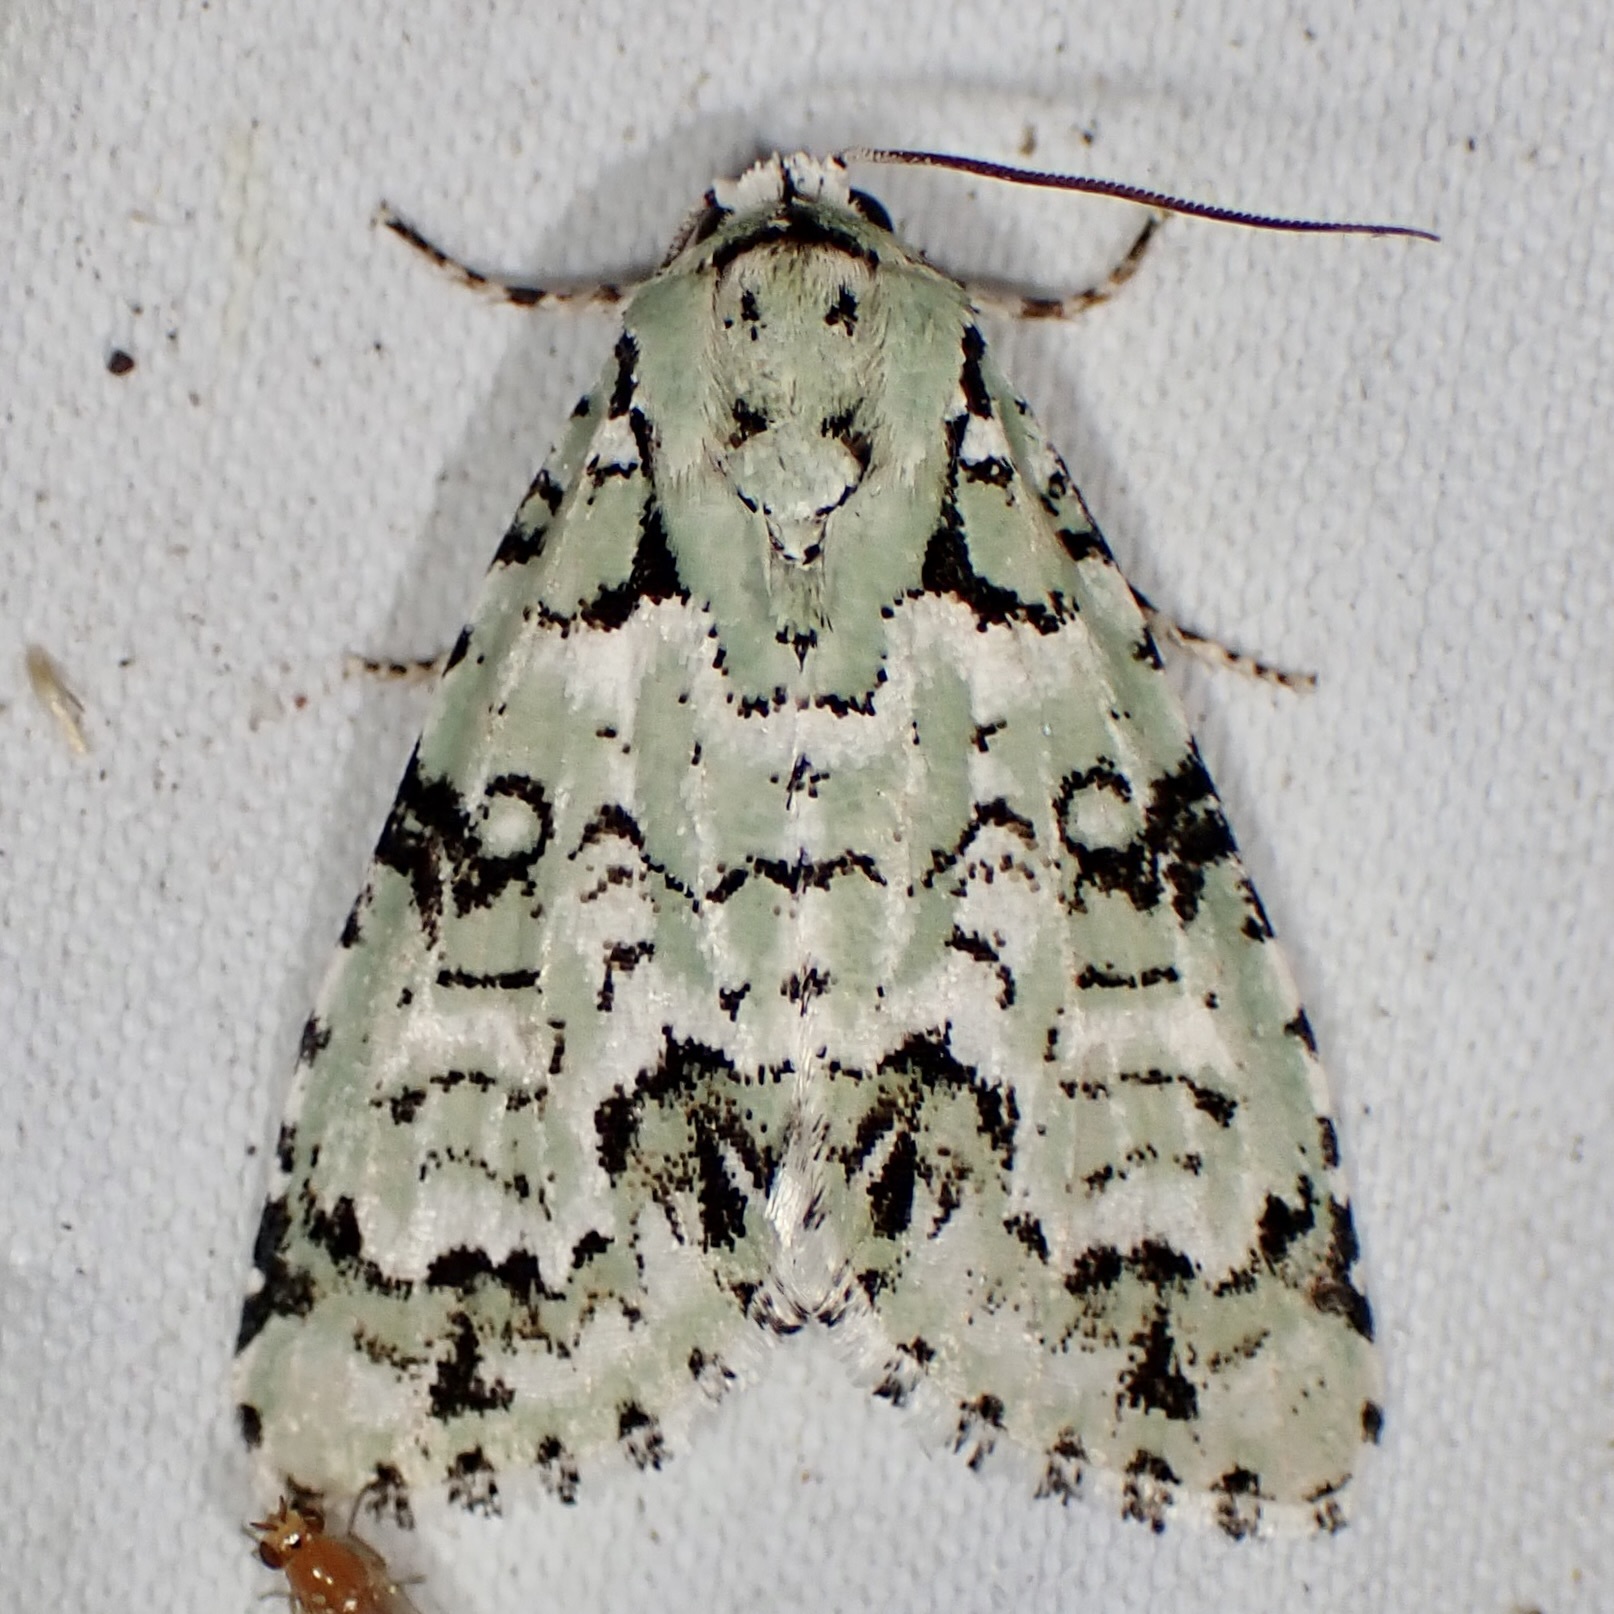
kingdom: Animalia
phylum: Arthropoda
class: Insecta
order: Lepidoptera
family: Noctuidae
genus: Chloronycta
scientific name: Chloronycta tybo
